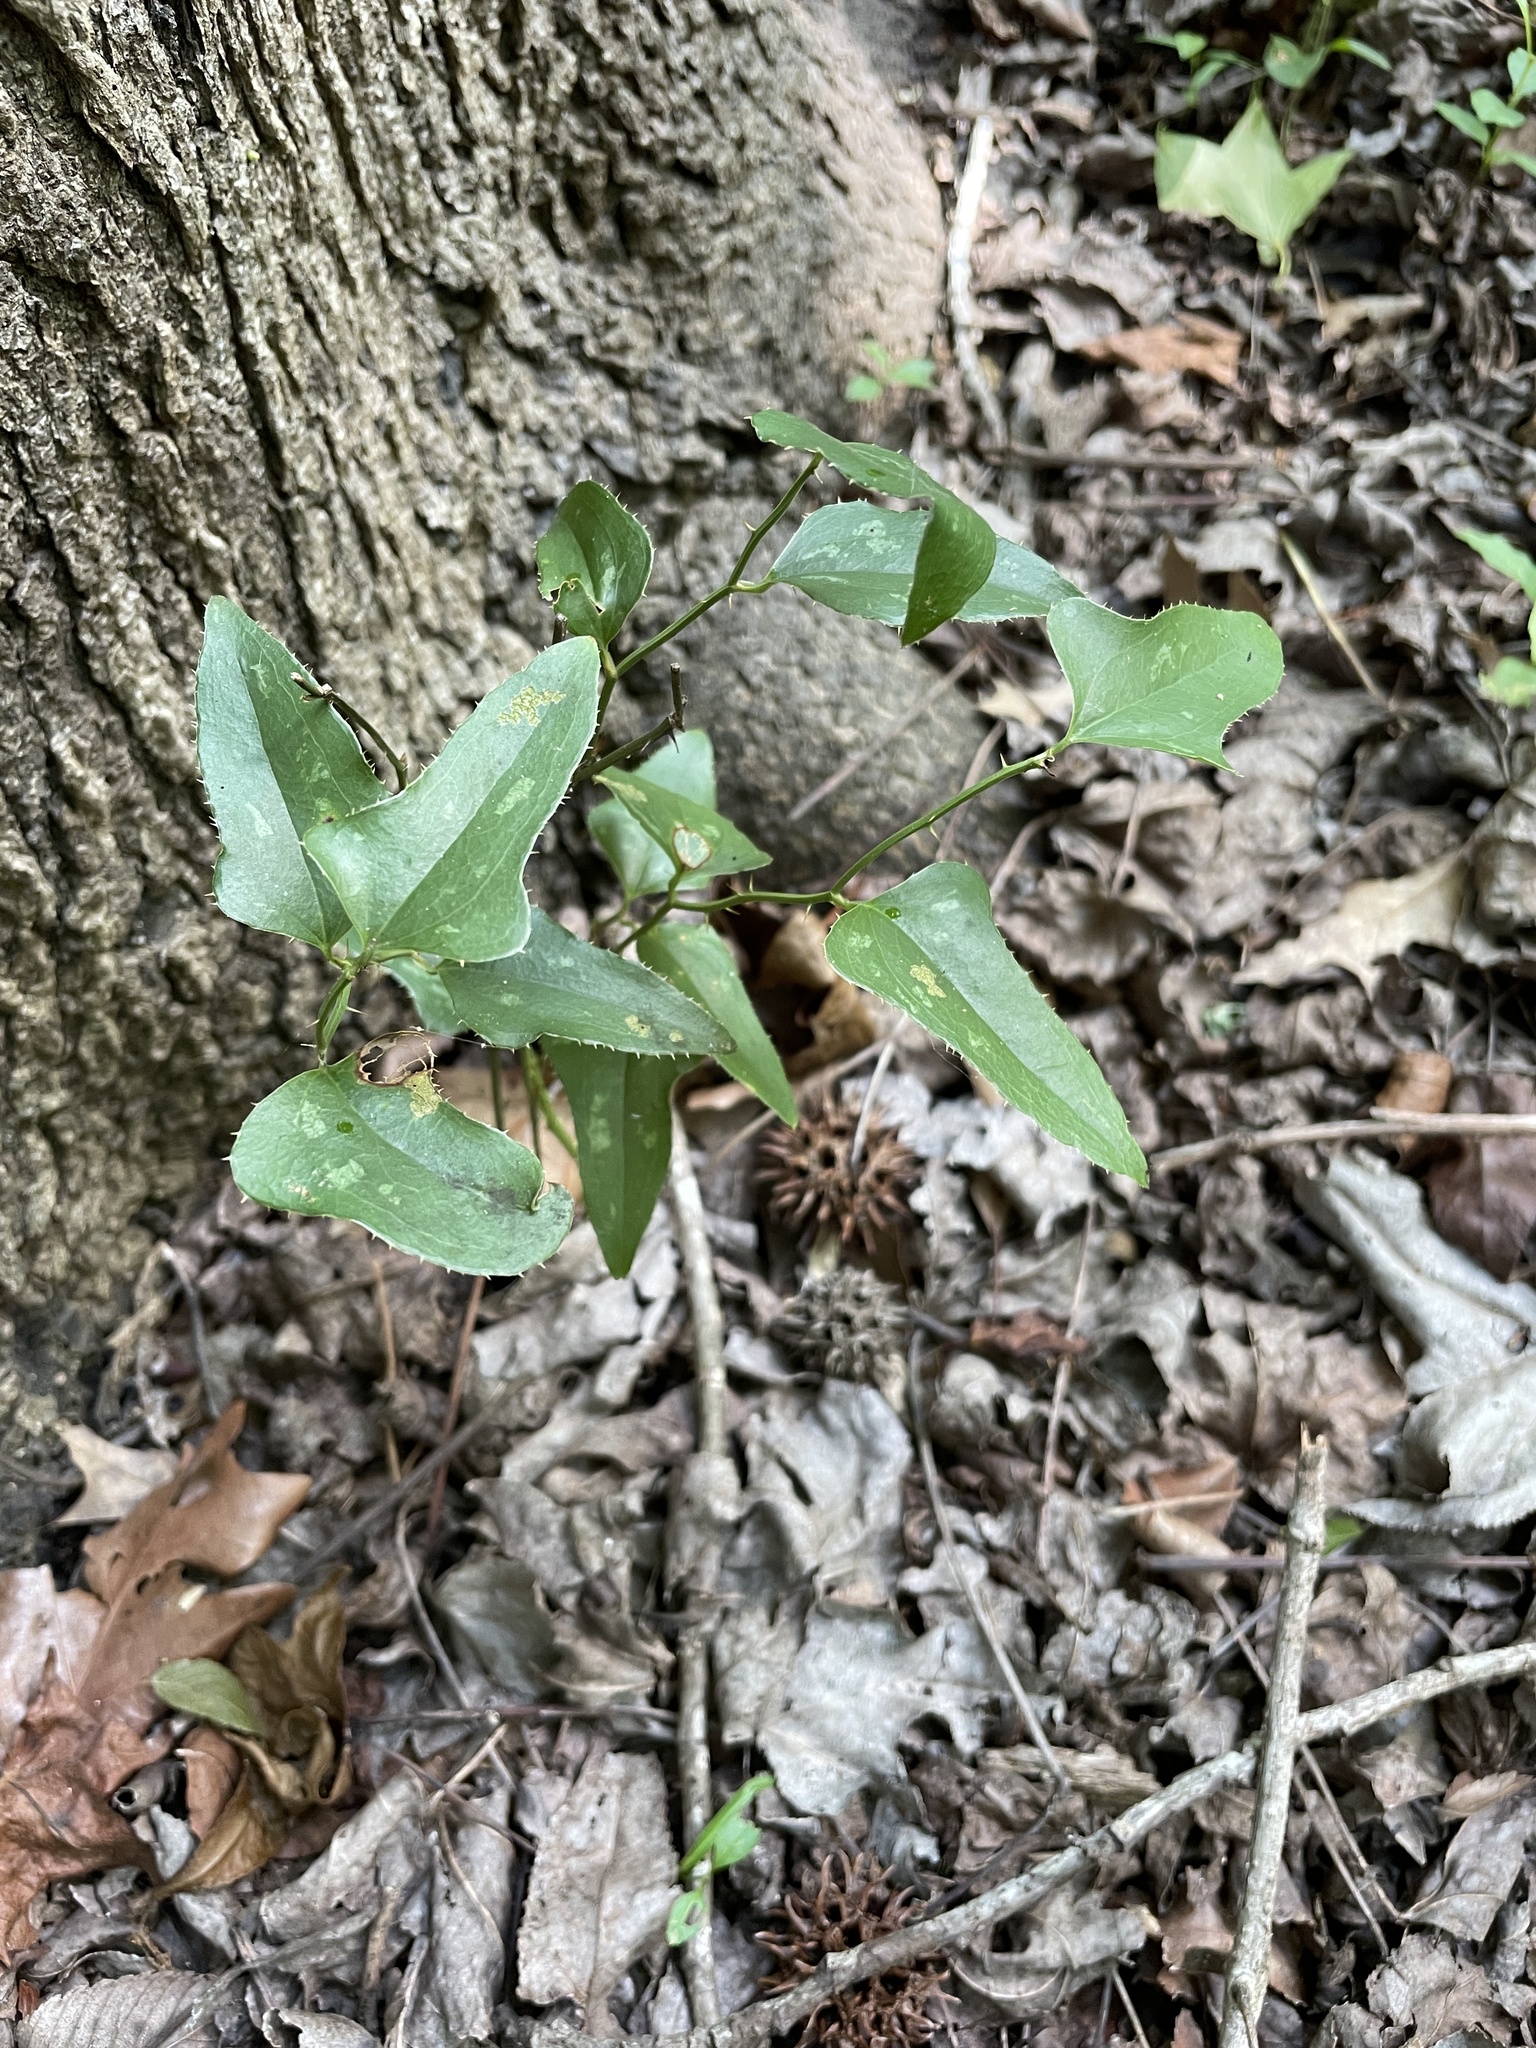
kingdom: Plantae
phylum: Tracheophyta
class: Liliopsida
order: Liliales
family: Smilacaceae
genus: Smilax
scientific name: Smilax bona-nox
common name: Catbrier
